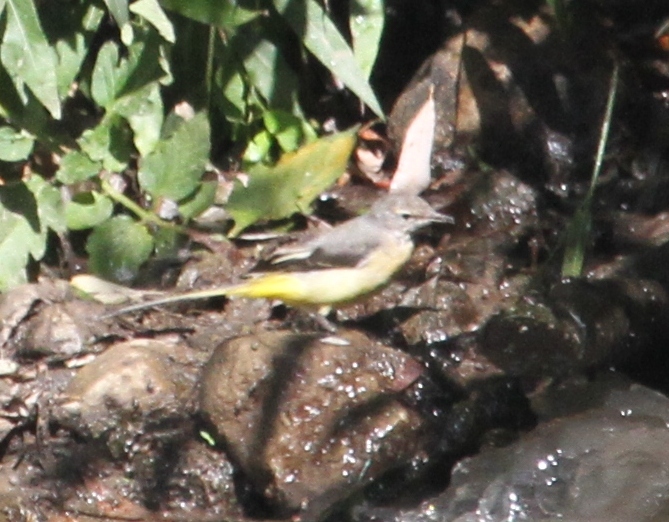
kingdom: Animalia
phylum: Chordata
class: Aves
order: Passeriformes
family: Motacillidae
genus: Motacilla
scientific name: Motacilla cinerea
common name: Grey wagtail
